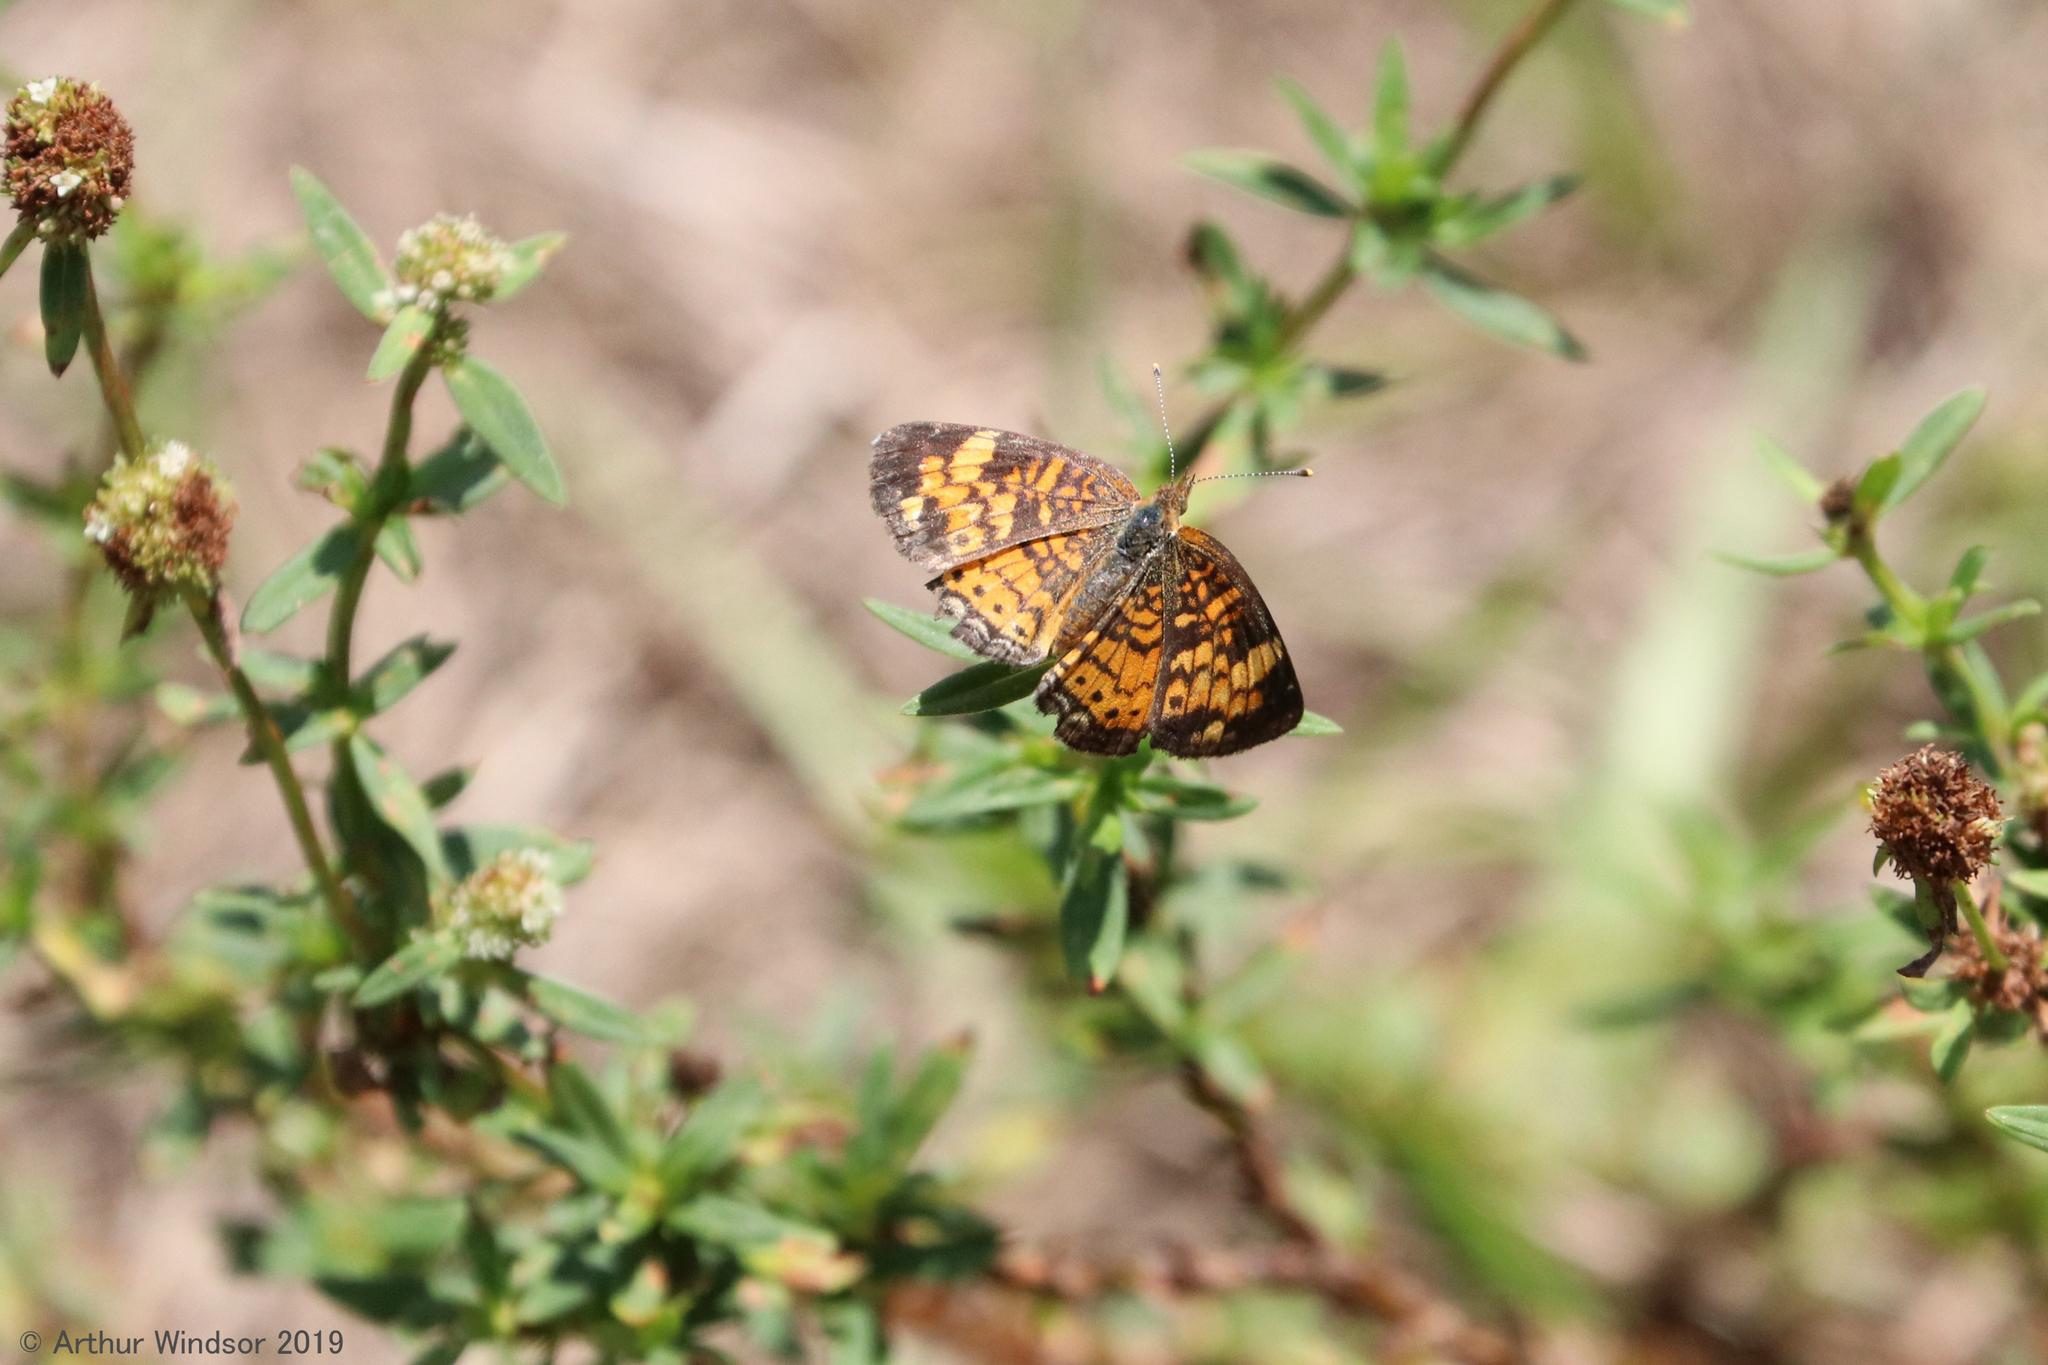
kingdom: Animalia
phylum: Arthropoda
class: Insecta
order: Lepidoptera
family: Nymphalidae
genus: Phyciodes
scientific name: Phyciodes tharos
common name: Pearl crescent
